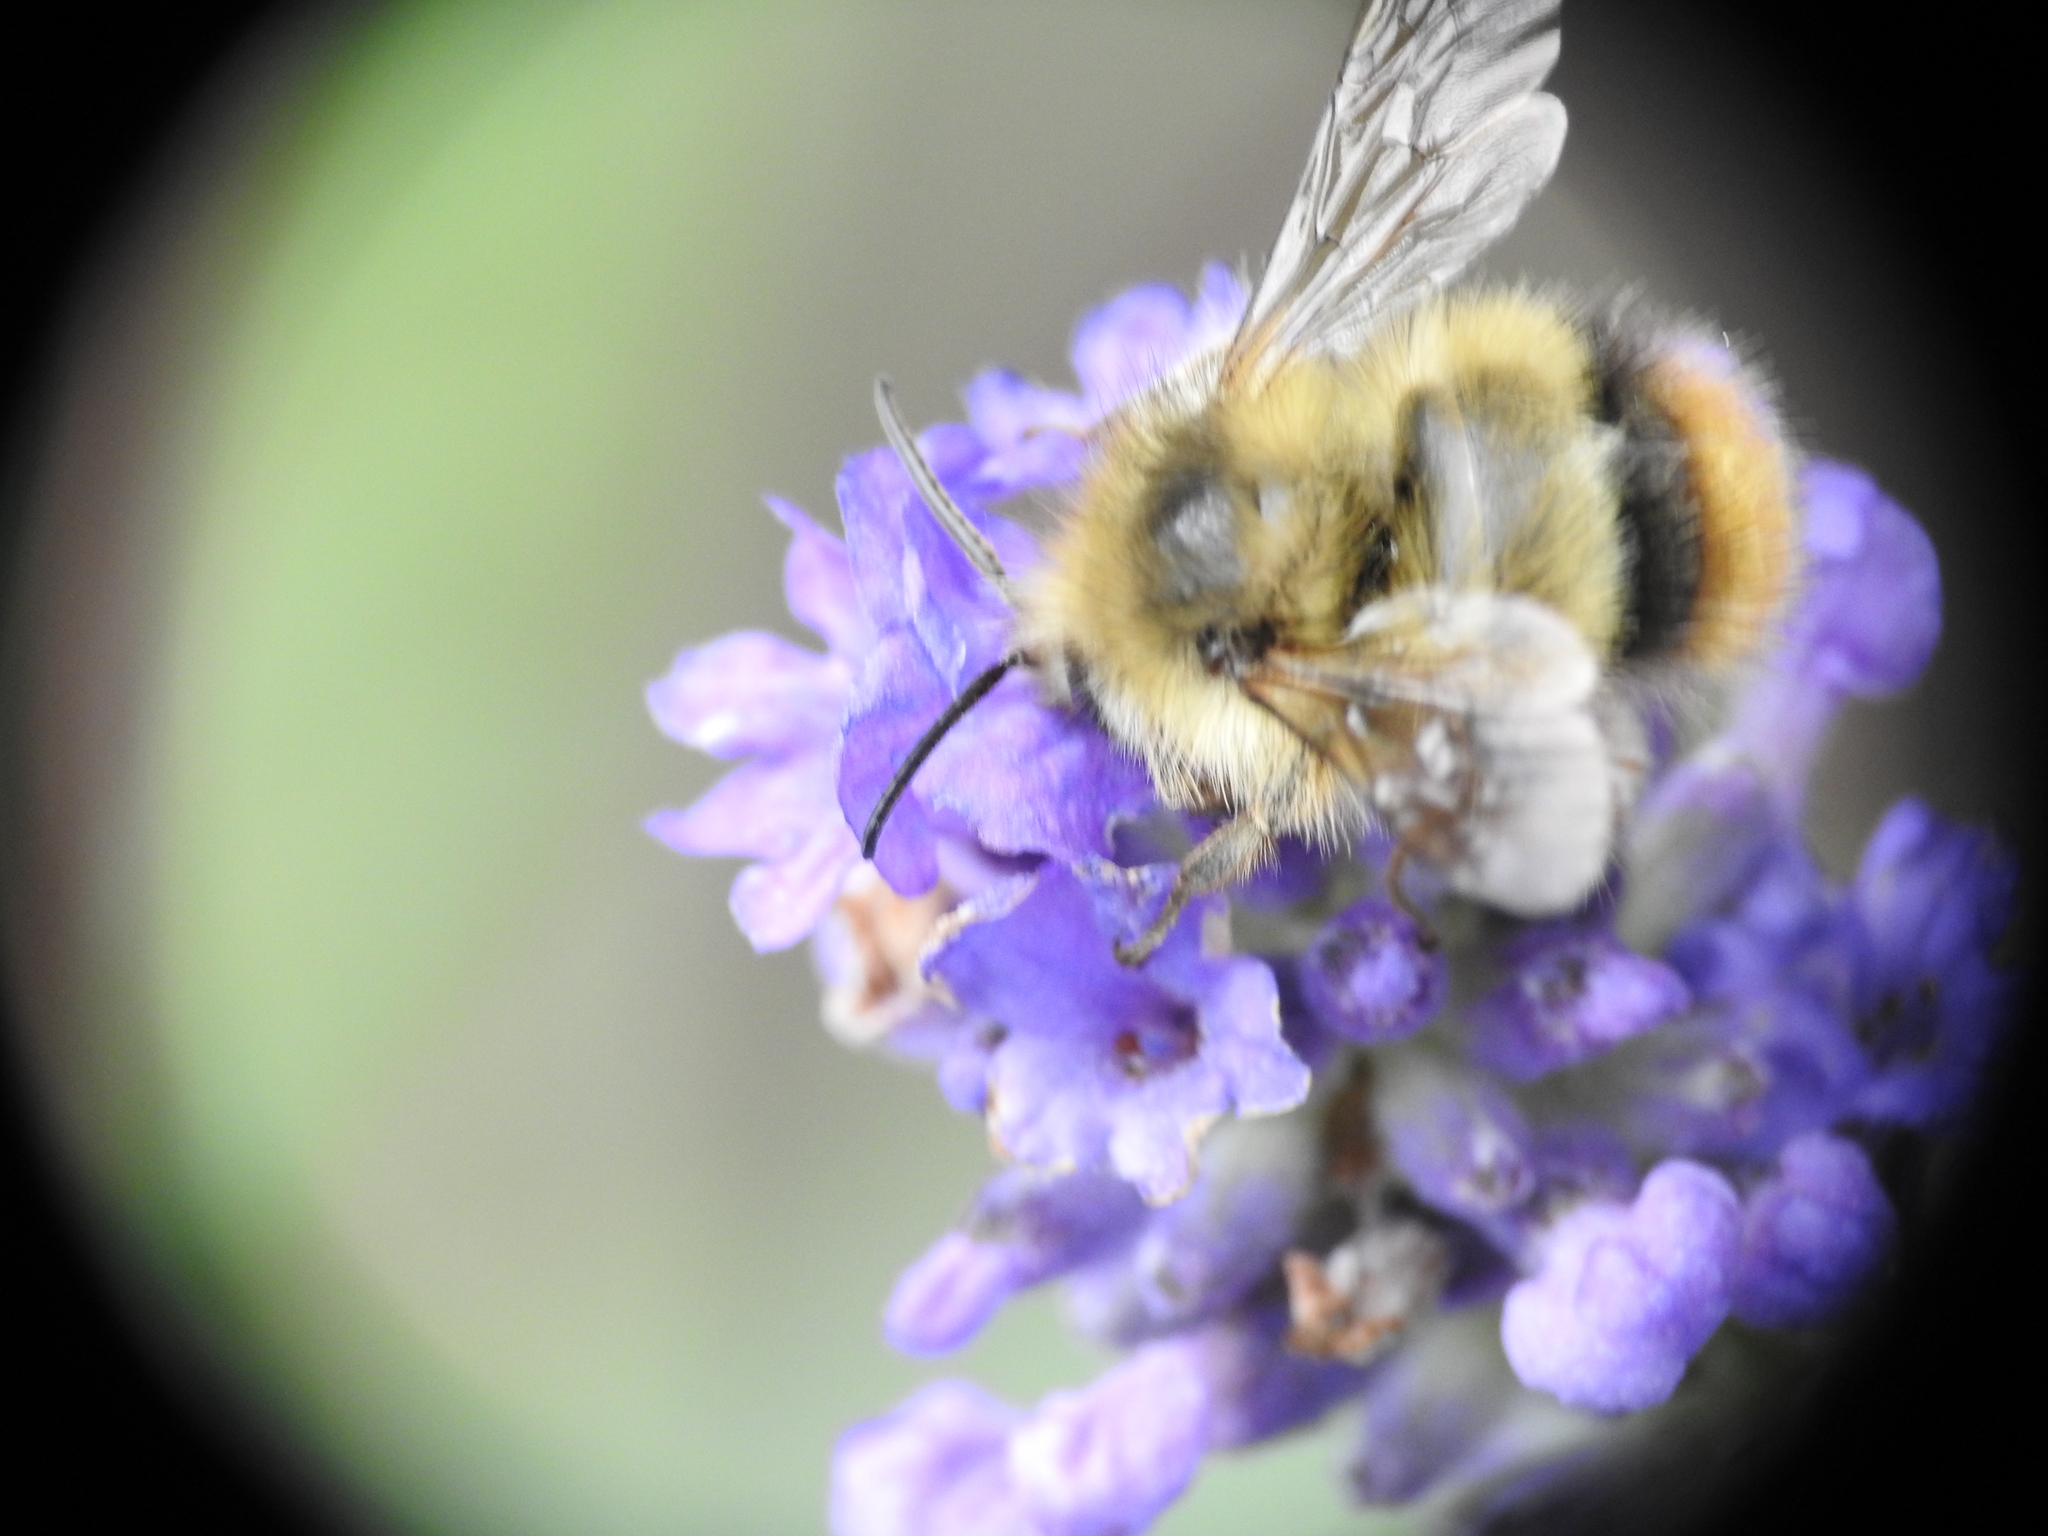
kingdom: Animalia
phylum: Arthropoda
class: Insecta
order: Hymenoptera
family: Apidae
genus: Bombus
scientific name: Bombus mixtus
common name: Fuzzy-horned bumble bee
